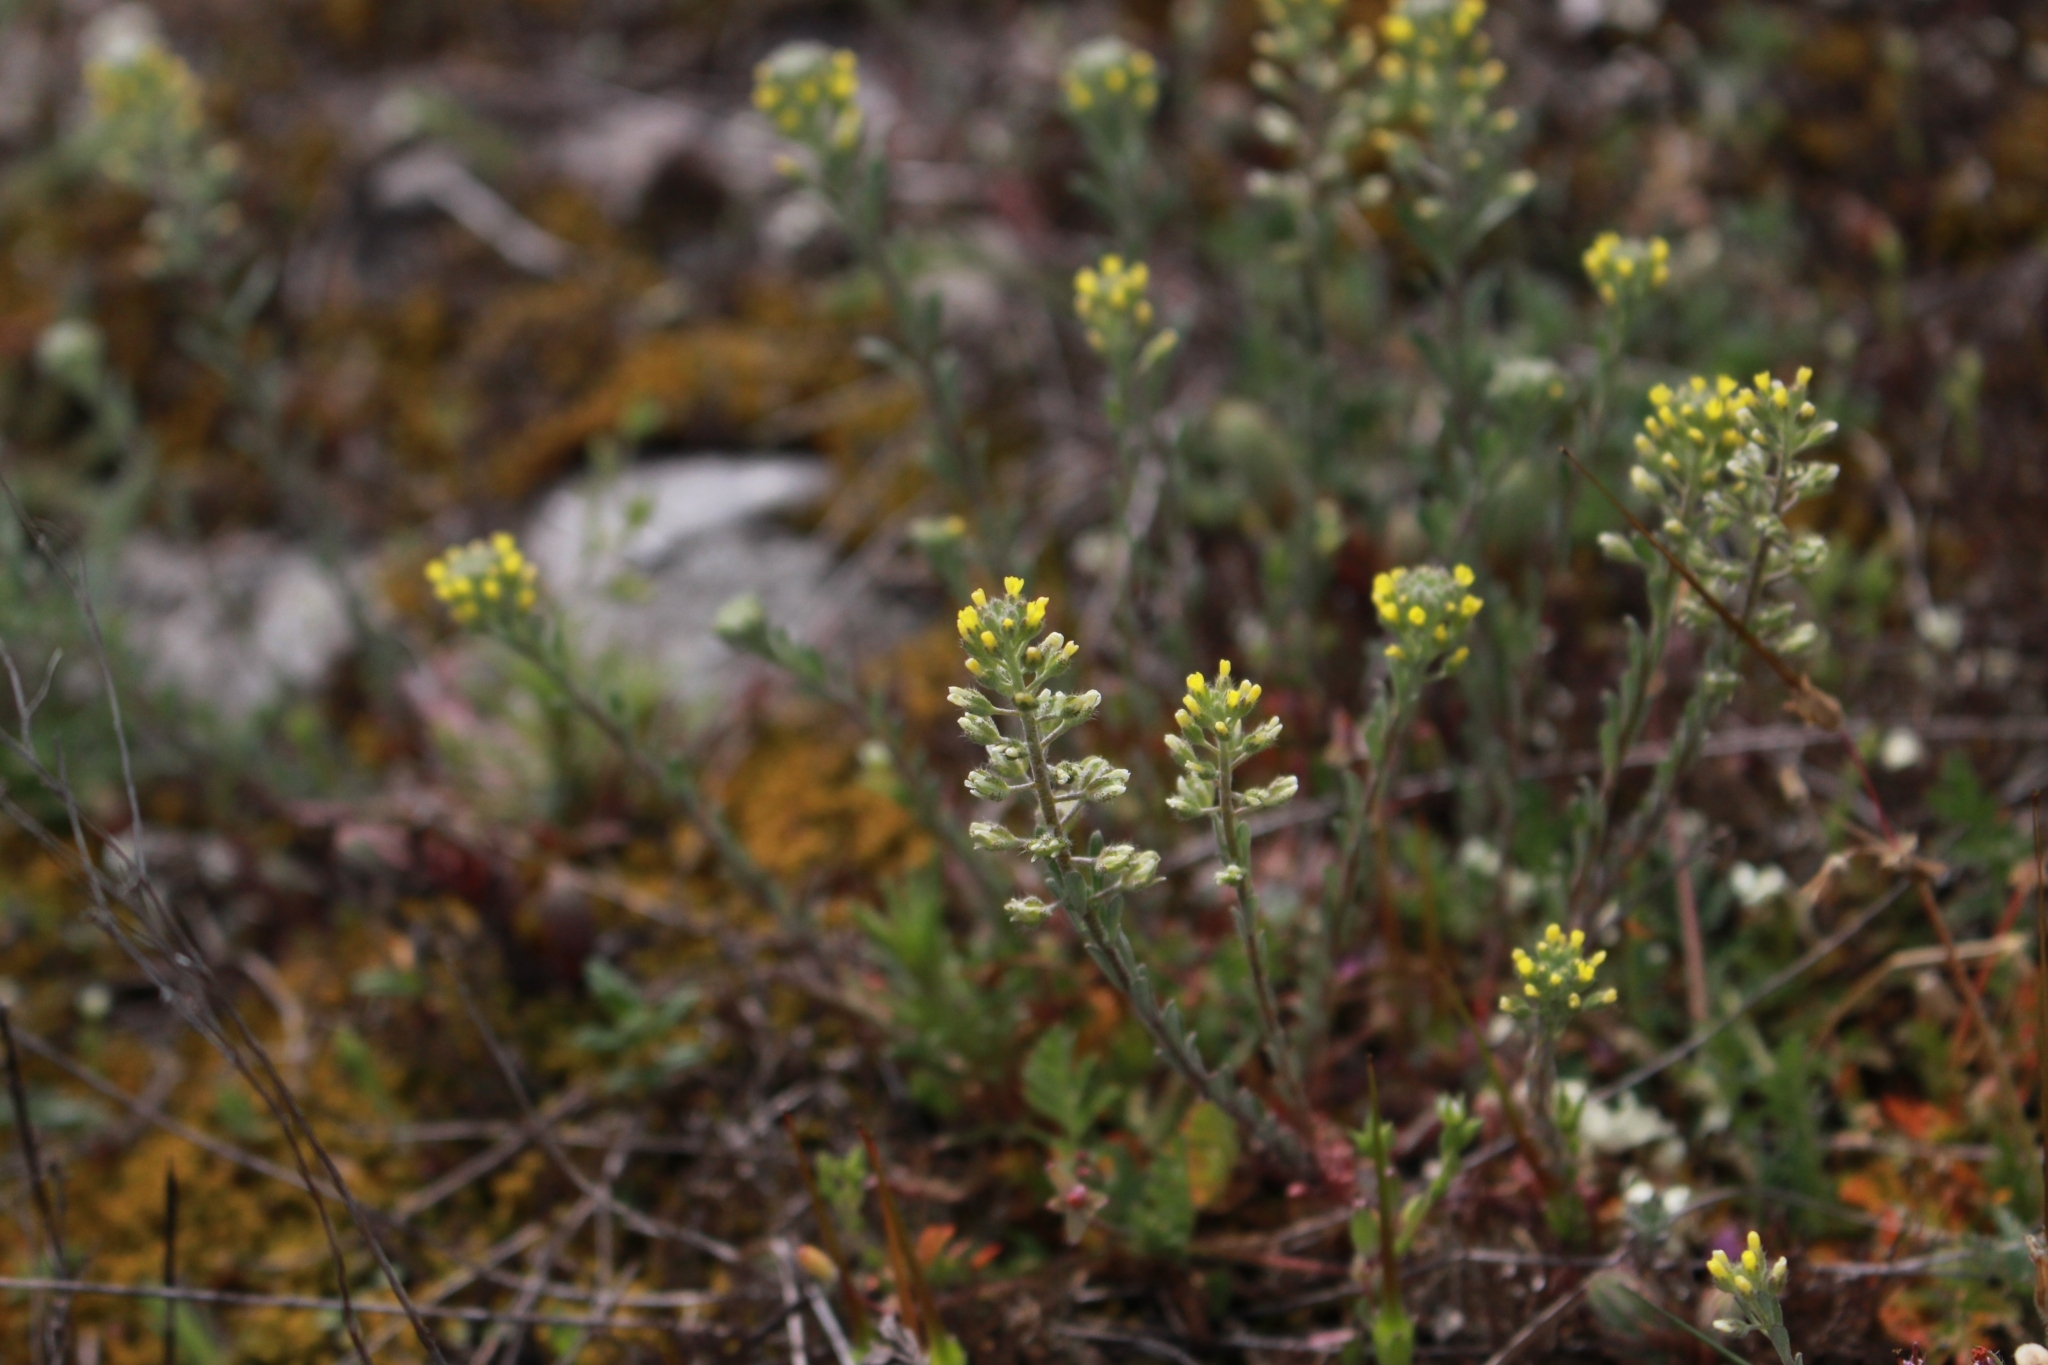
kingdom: Plantae
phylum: Tracheophyta
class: Magnoliopsida
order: Brassicales
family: Brassicaceae
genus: Alyssum
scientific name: Alyssum alyssoides
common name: Small alison
